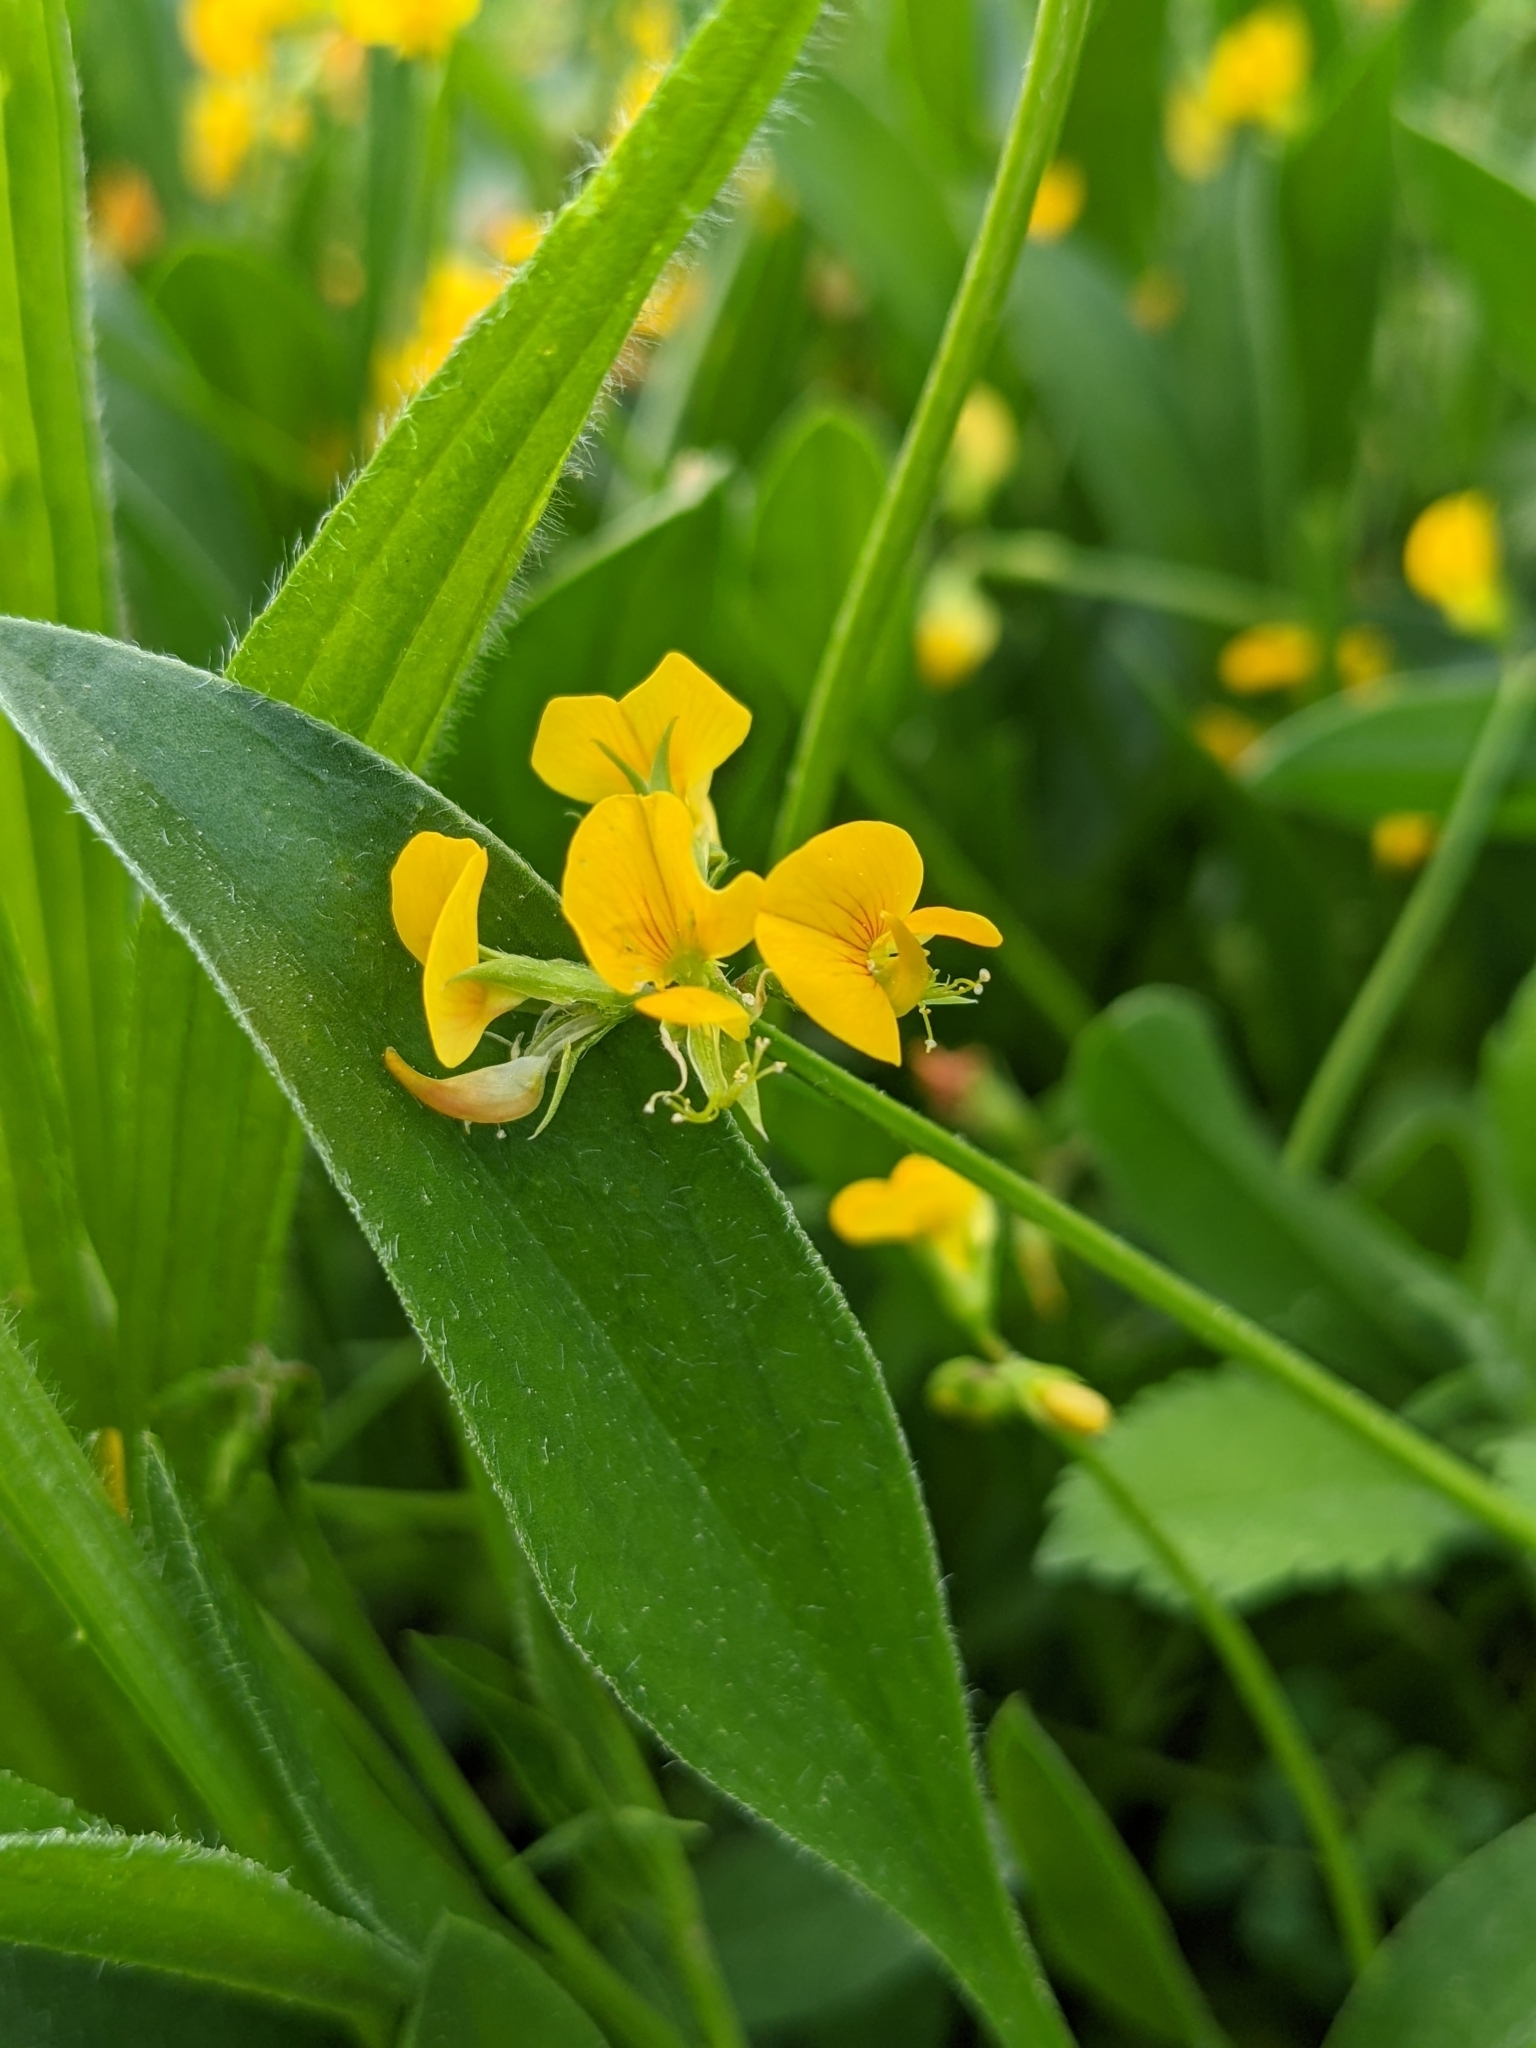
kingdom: Plantae
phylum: Tracheophyta
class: Magnoliopsida
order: Fabales
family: Fabaceae
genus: Scorpiurus
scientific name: Scorpiurus muricatus
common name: Caterpillar-plant
